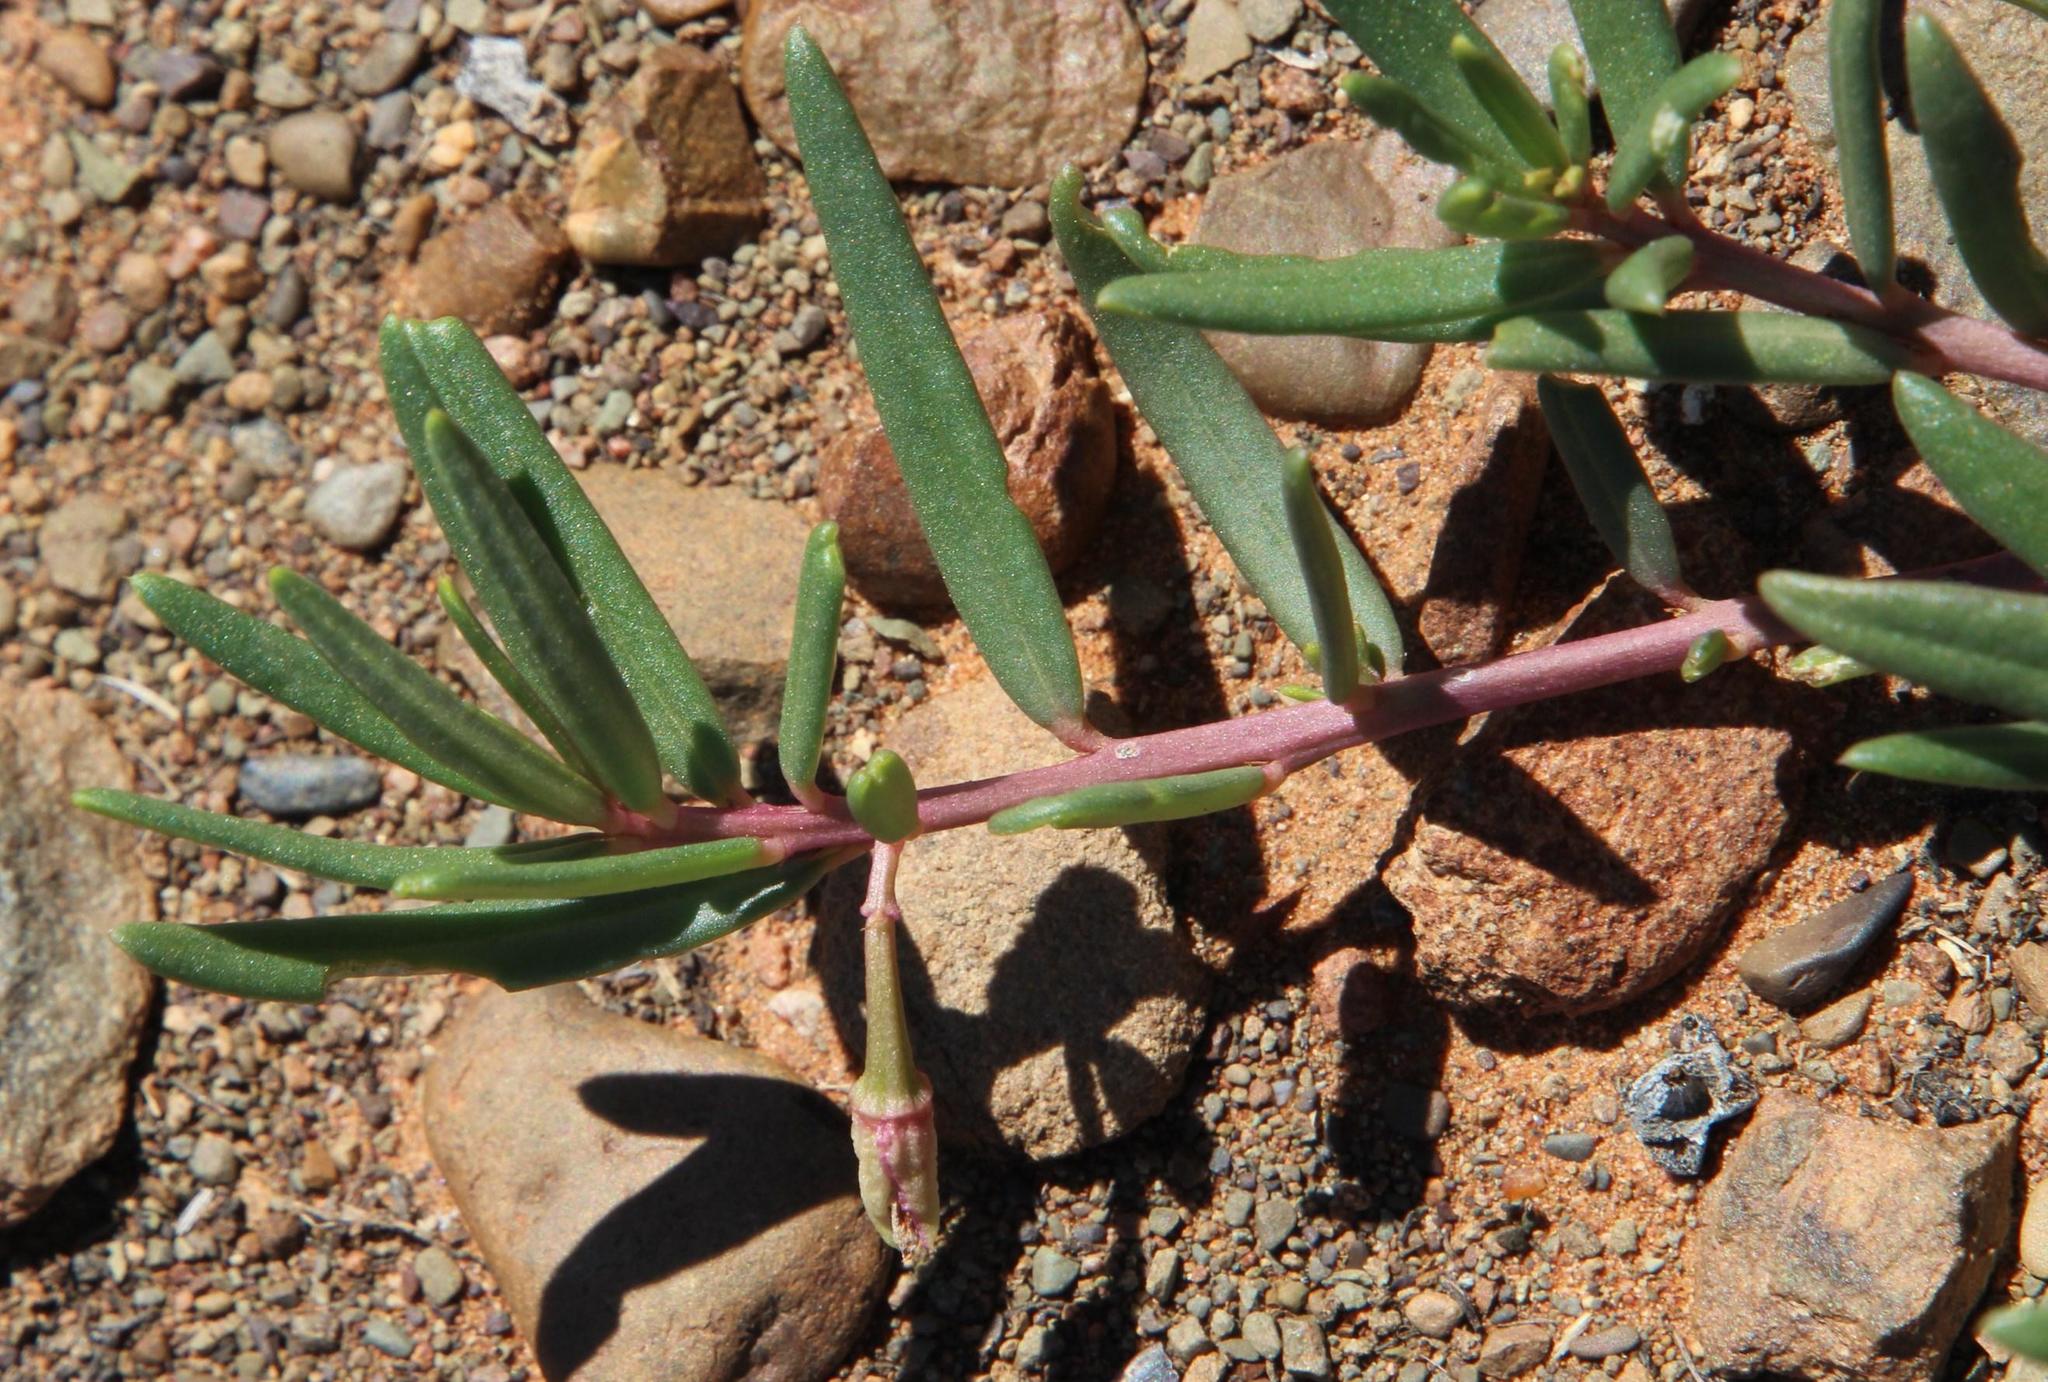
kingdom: Plantae
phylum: Tracheophyta
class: Magnoliopsida
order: Caryophyllales
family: Talinaceae
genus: Talinum
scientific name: Talinum caffrum
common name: Flameflower
